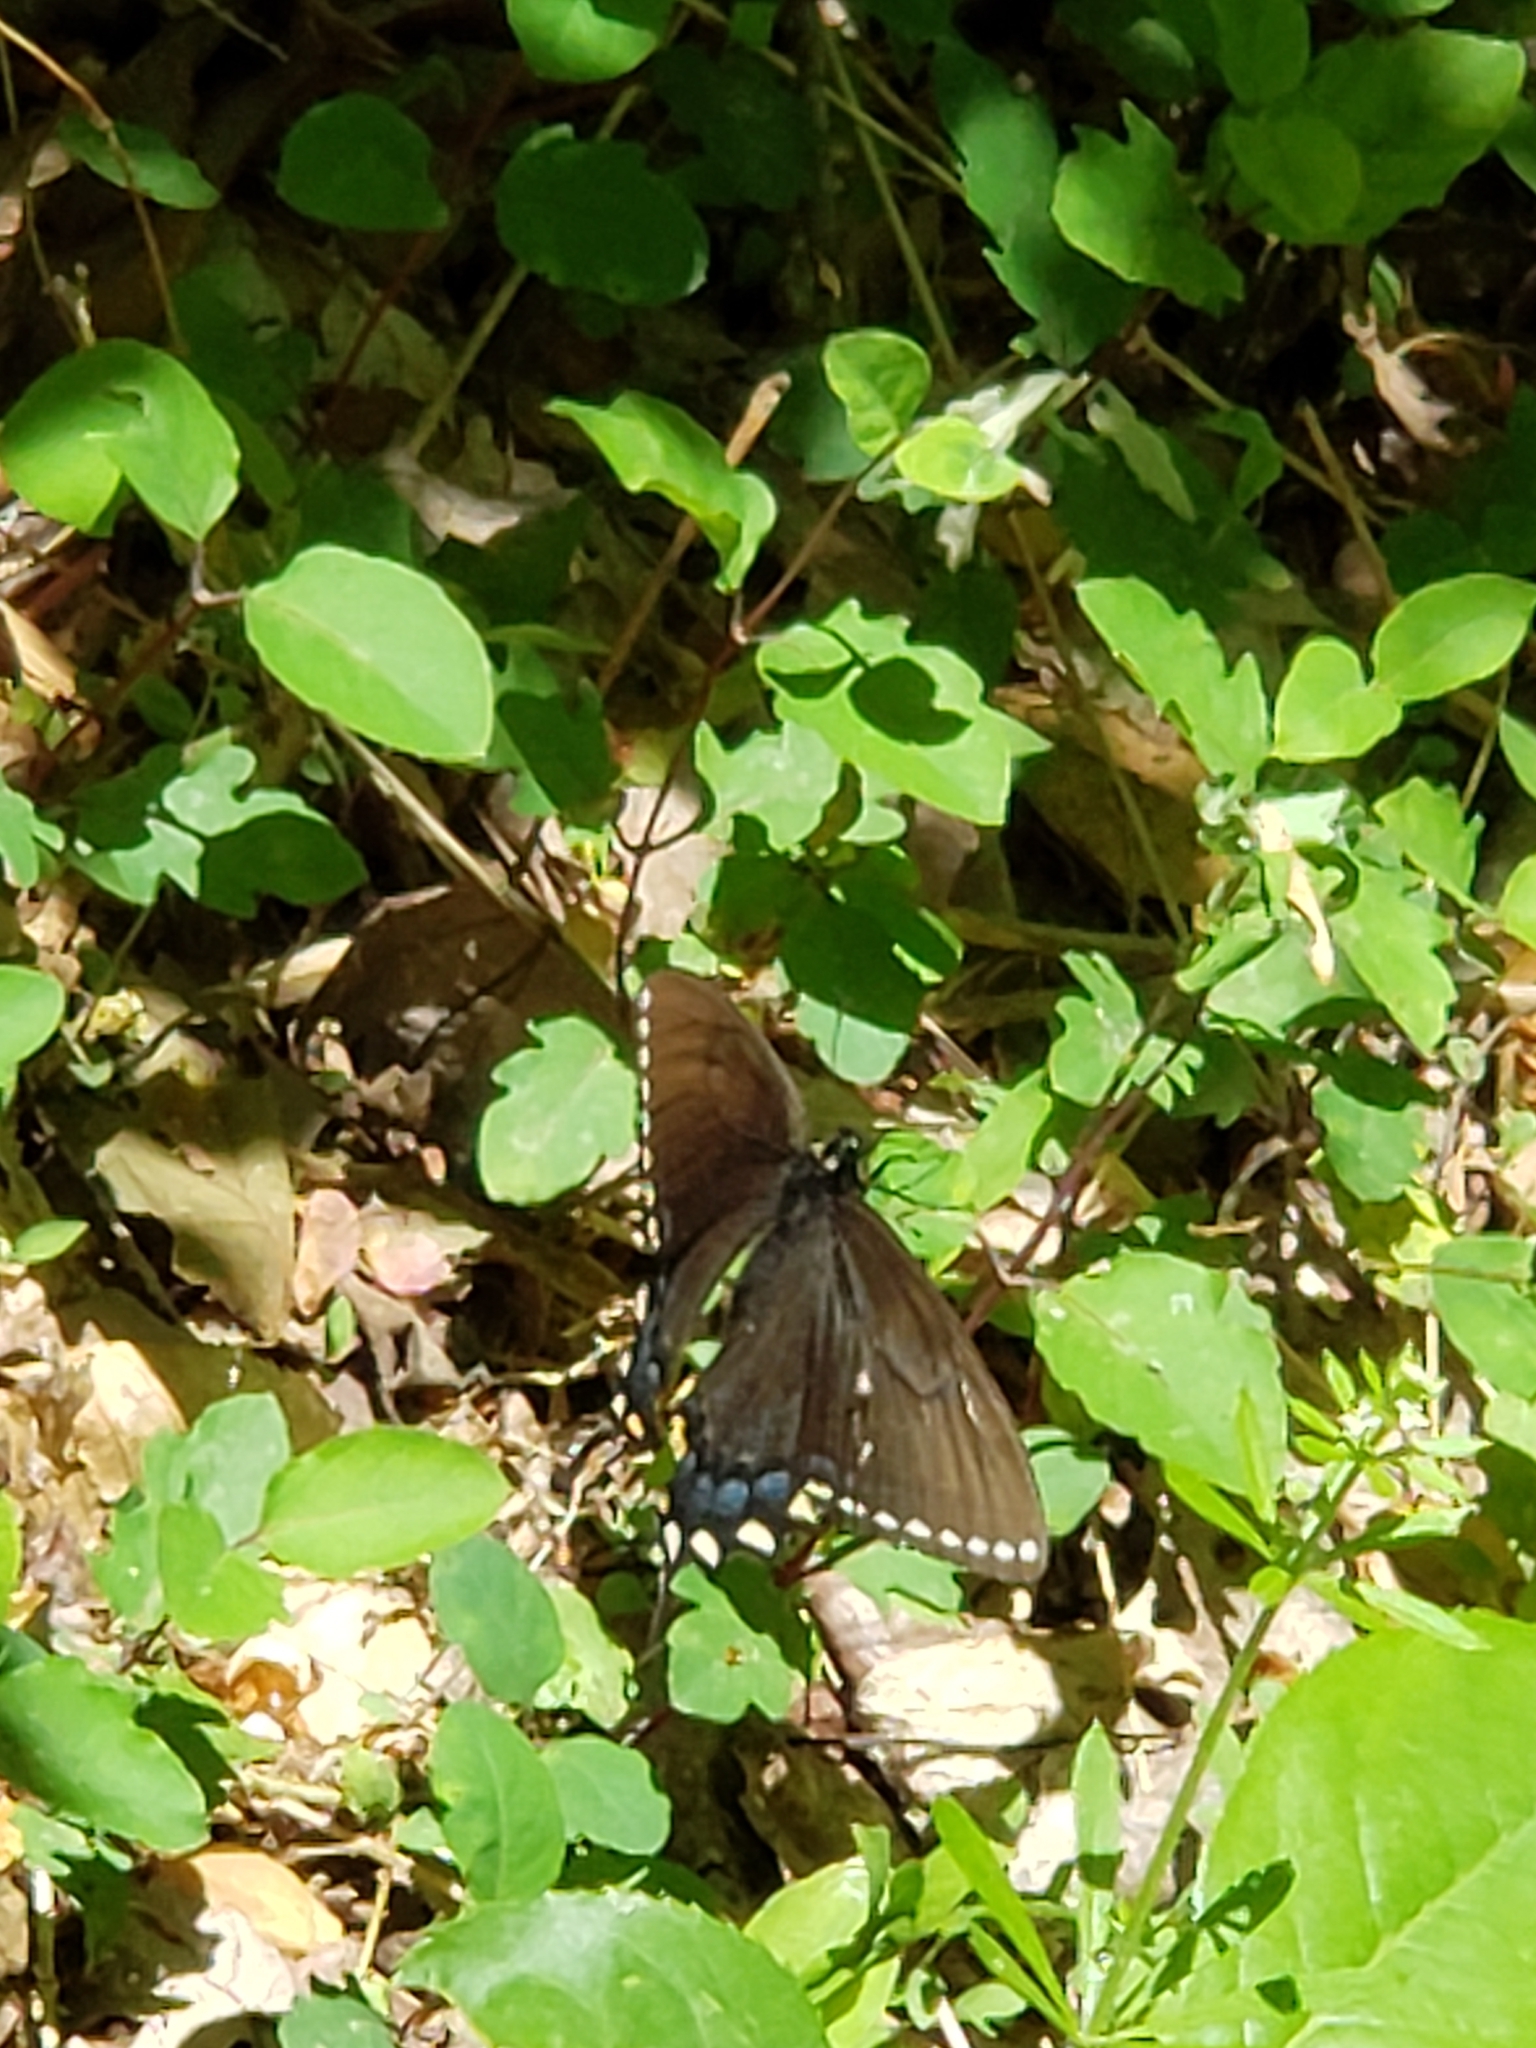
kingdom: Animalia
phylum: Arthropoda
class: Insecta
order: Lepidoptera
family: Papilionidae
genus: Papilio
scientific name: Papilio glaucus
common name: Tiger swallowtail
